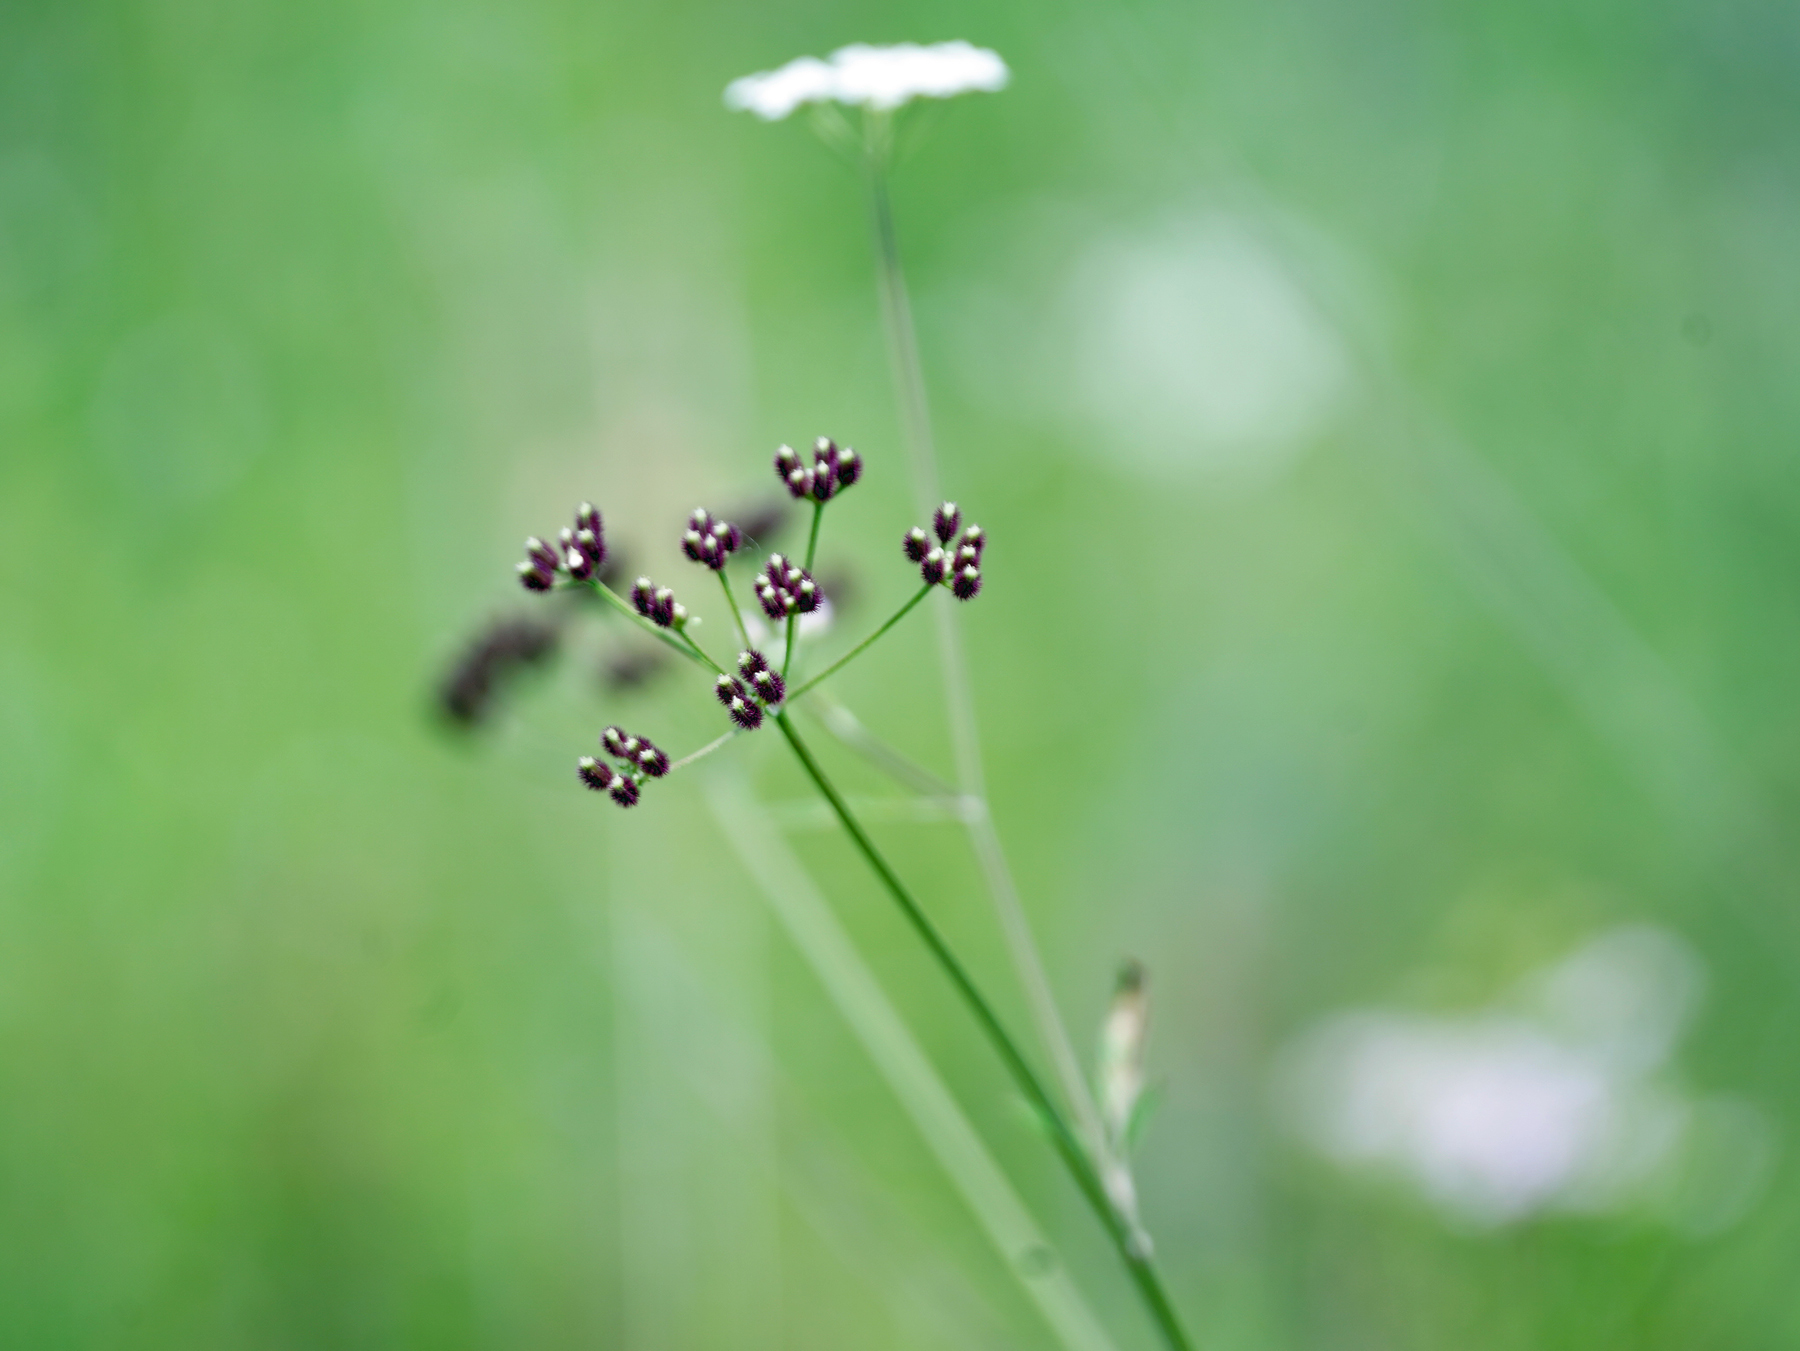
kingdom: Plantae
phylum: Tracheophyta
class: Magnoliopsida
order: Apiales
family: Apiaceae
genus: Torilis
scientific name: Torilis arvensis
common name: Spreading hedge-parsley
